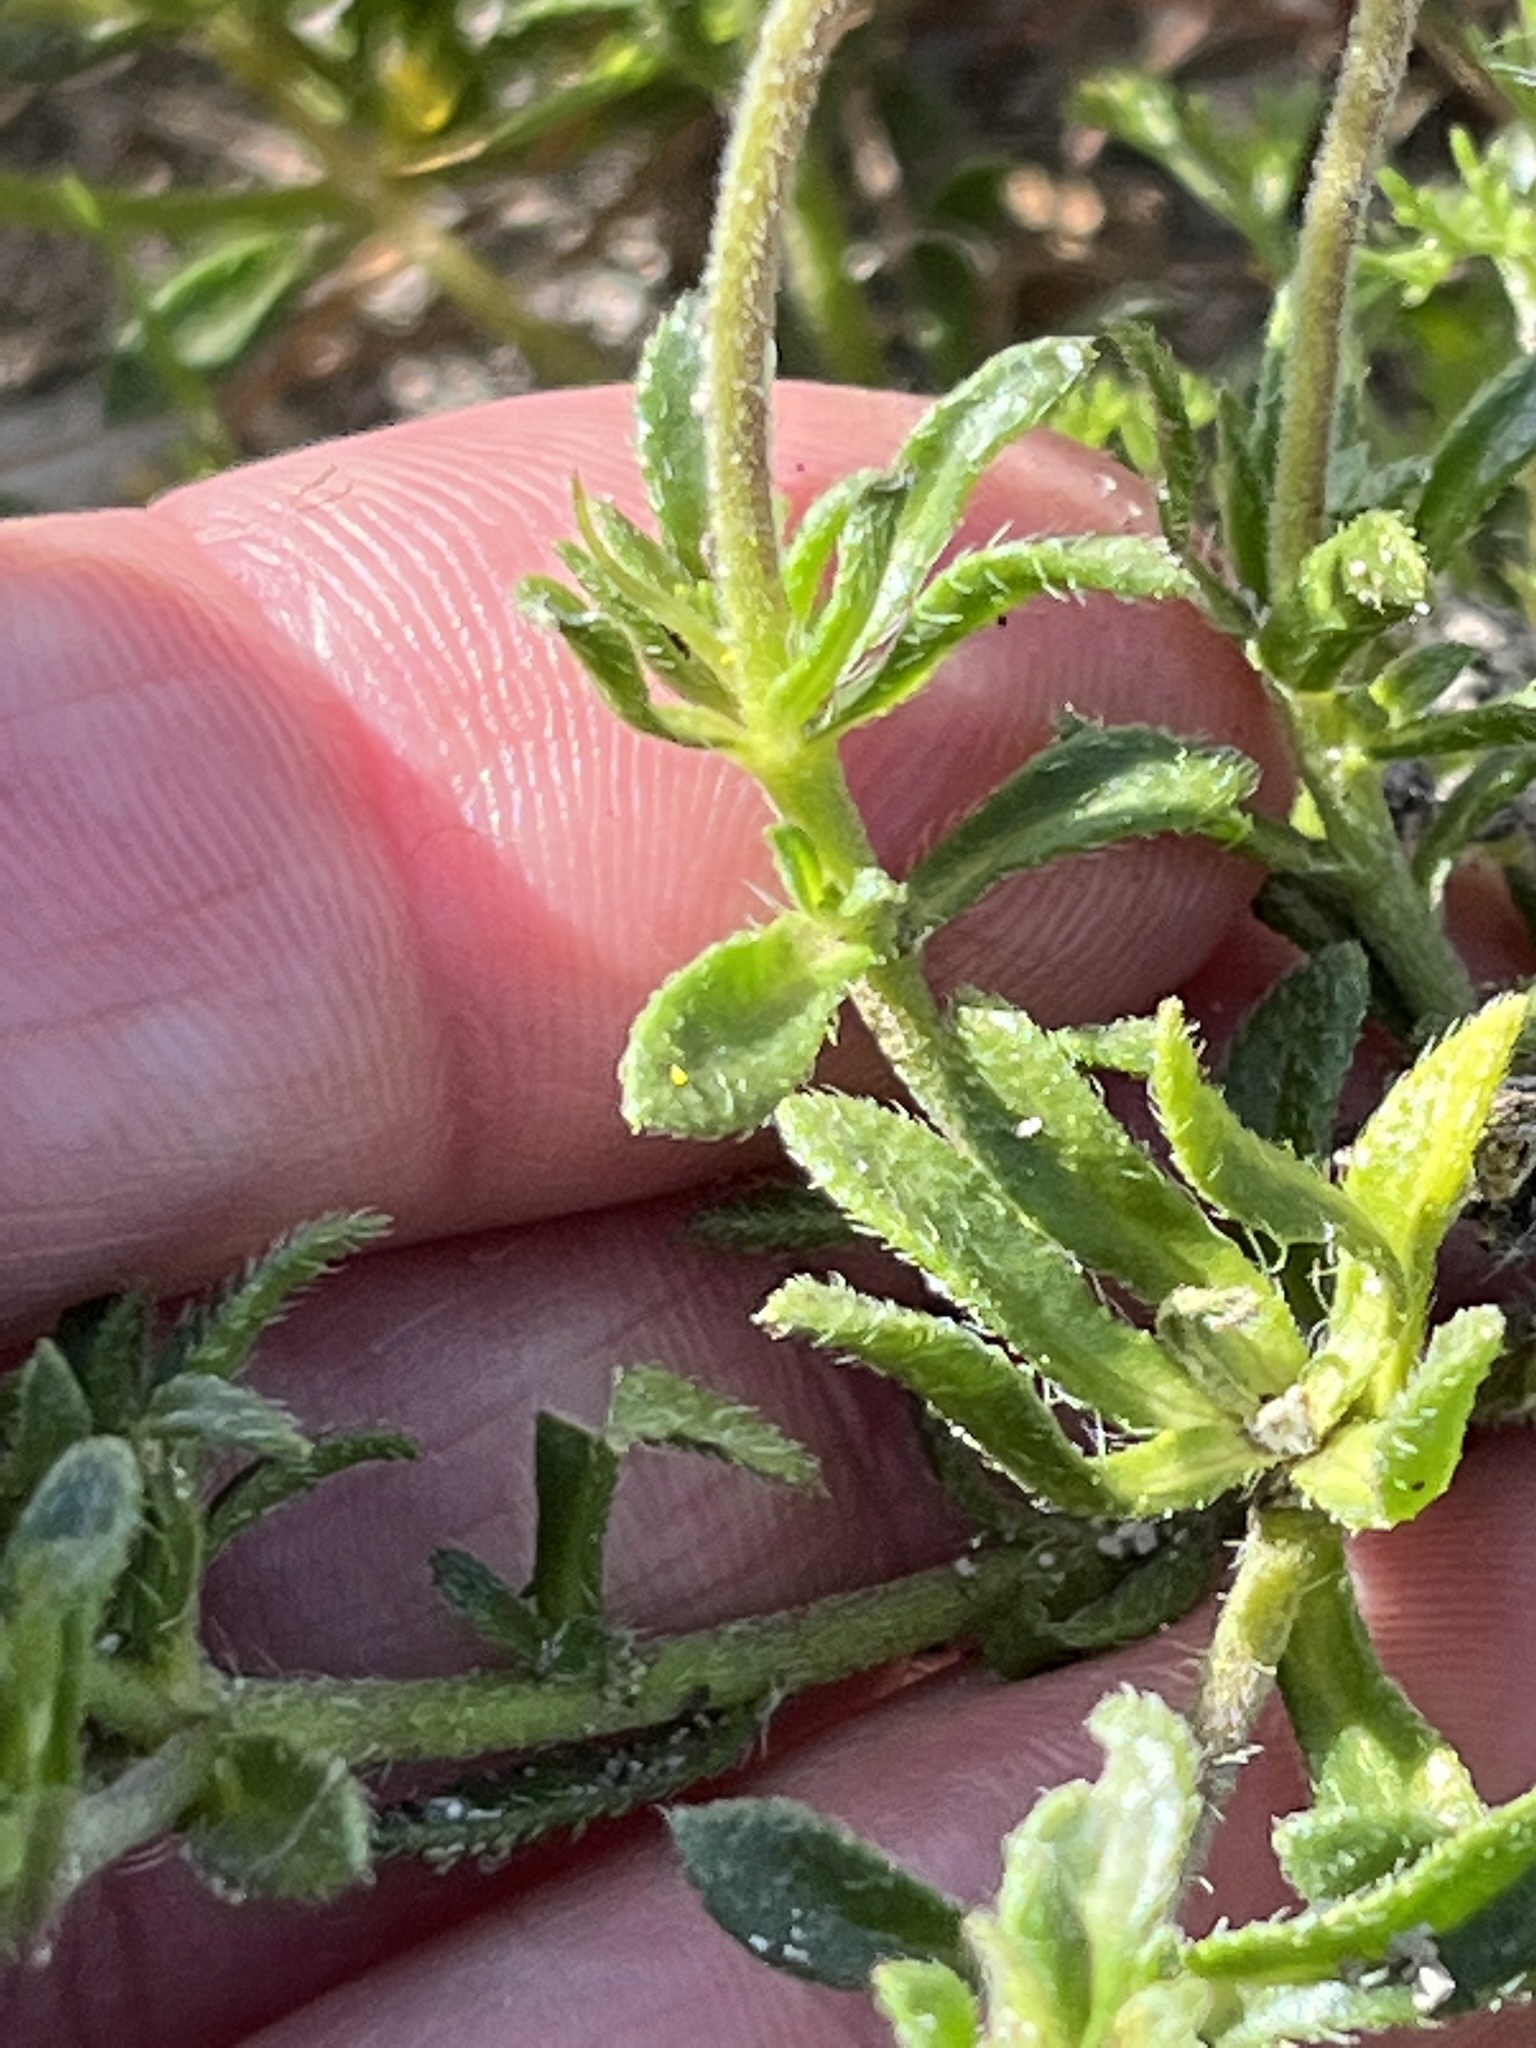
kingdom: Plantae
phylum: Tracheophyta
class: Magnoliopsida
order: Asterales
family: Asteraceae
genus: Felicia
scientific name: Felicia amoena
